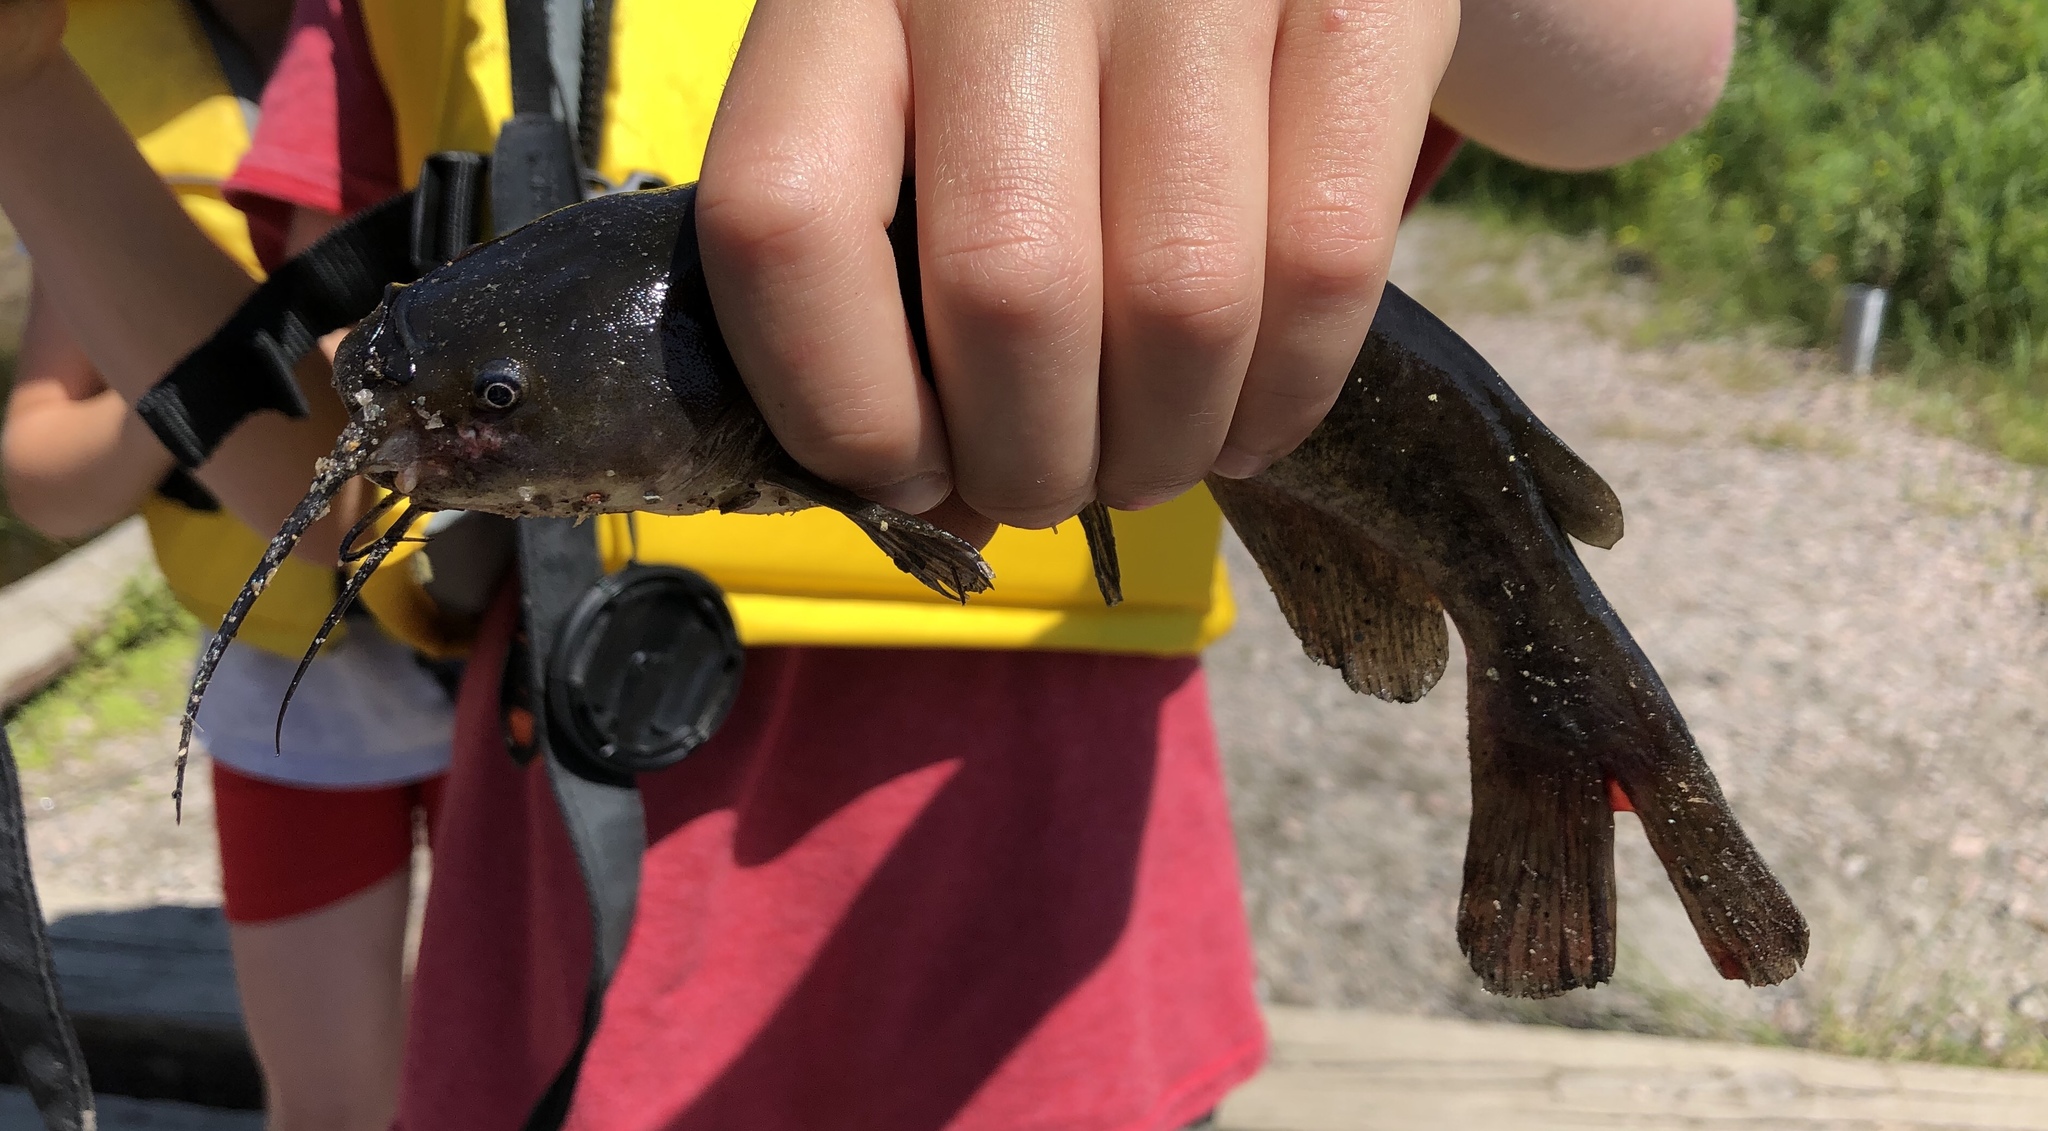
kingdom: Animalia
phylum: Chordata
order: Siluriformes
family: Ictaluridae
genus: Ameiurus
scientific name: Ameiurus nebulosus
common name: Brown bullhead
